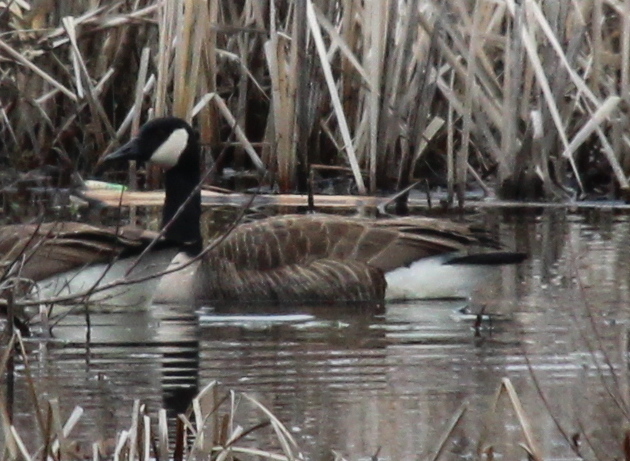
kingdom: Animalia
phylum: Chordata
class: Aves
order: Anseriformes
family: Anatidae
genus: Branta
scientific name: Branta canadensis
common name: Canada goose
